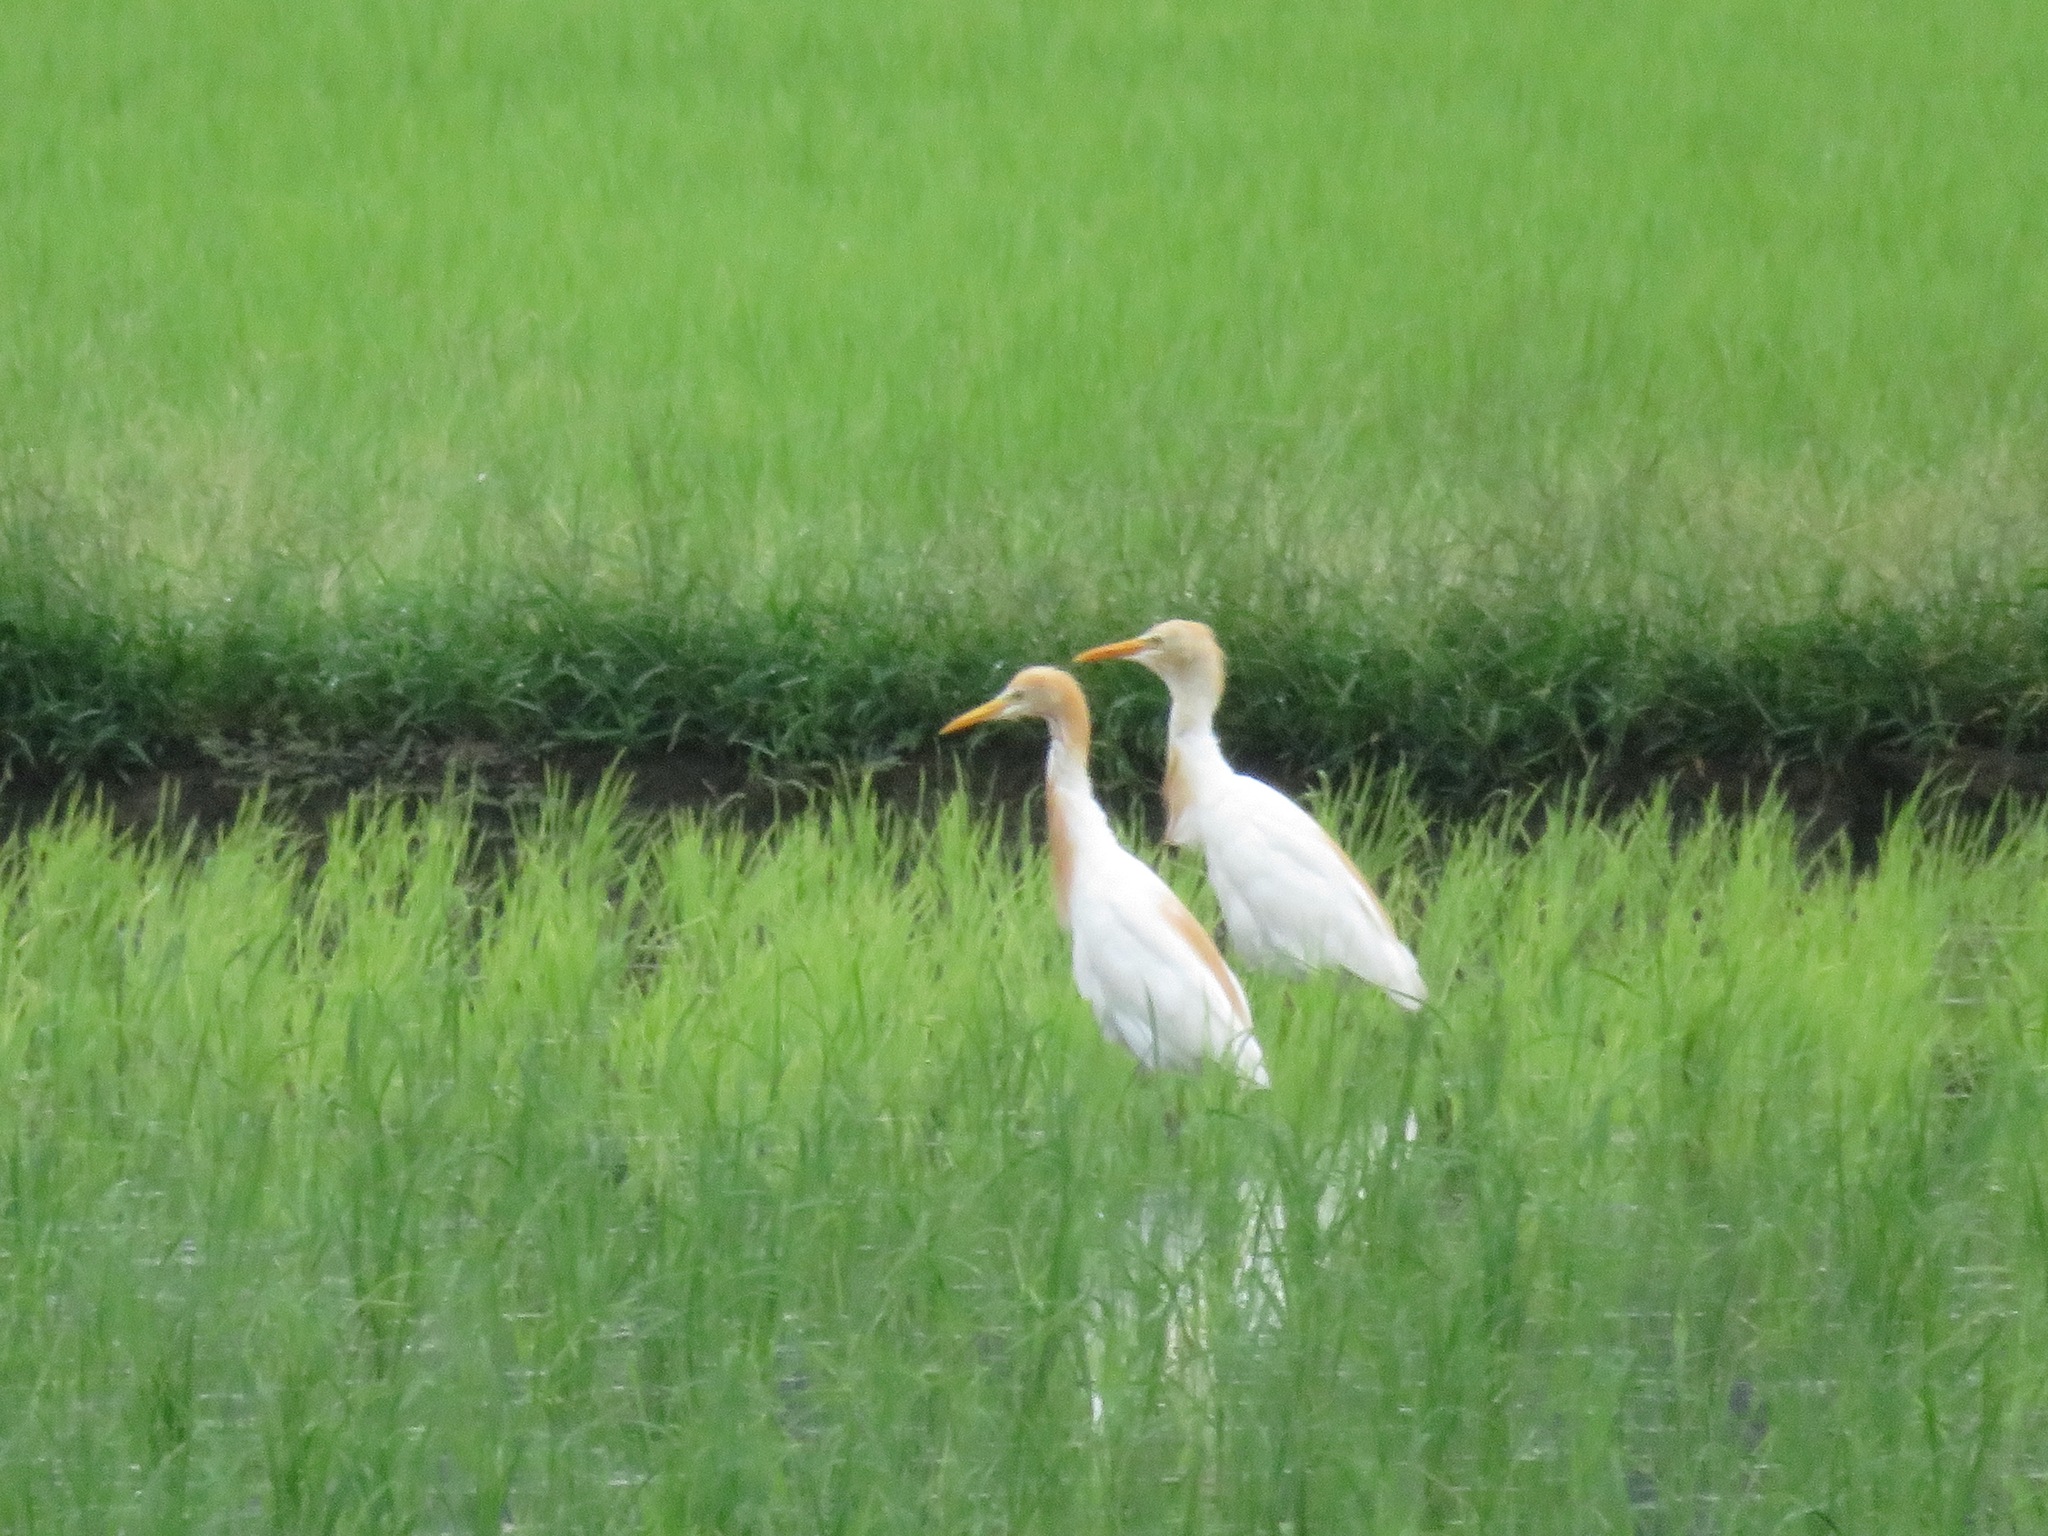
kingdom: Animalia
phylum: Chordata
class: Aves
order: Pelecaniformes
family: Ardeidae
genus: Bubulcus
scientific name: Bubulcus coromandus
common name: Eastern cattle egret
